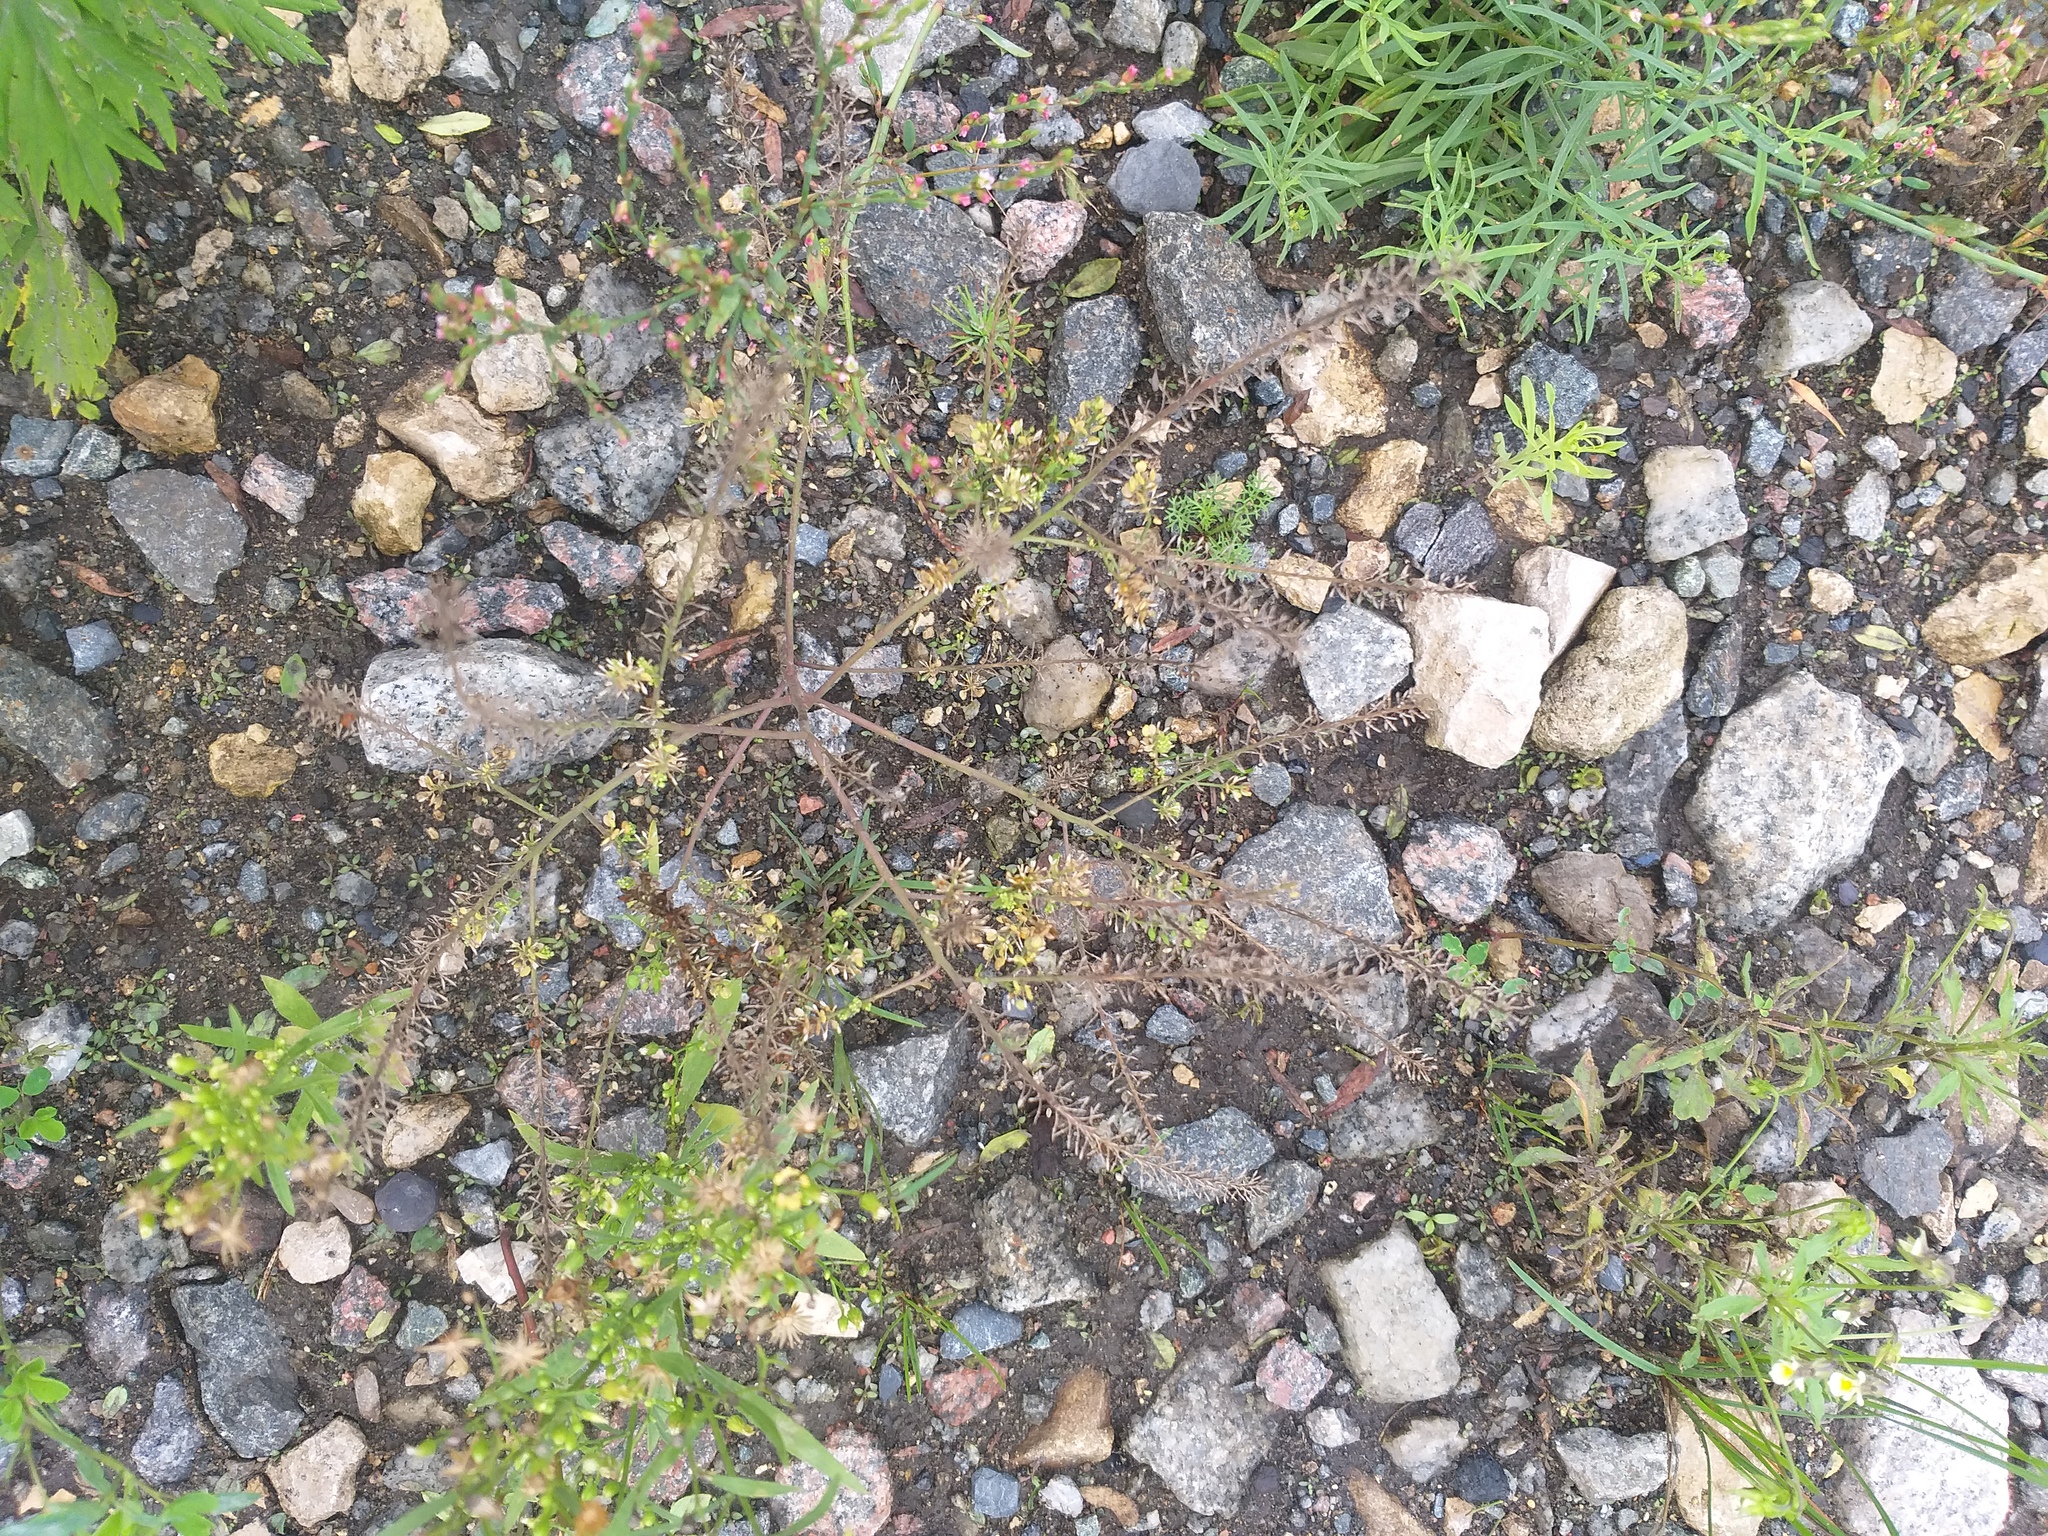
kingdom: Plantae
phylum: Tracheophyta
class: Magnoliopsida
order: Brassicales
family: Brassicaceae
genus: Lepidium
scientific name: Lepidium densiflorum
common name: Miner's pepperwort
